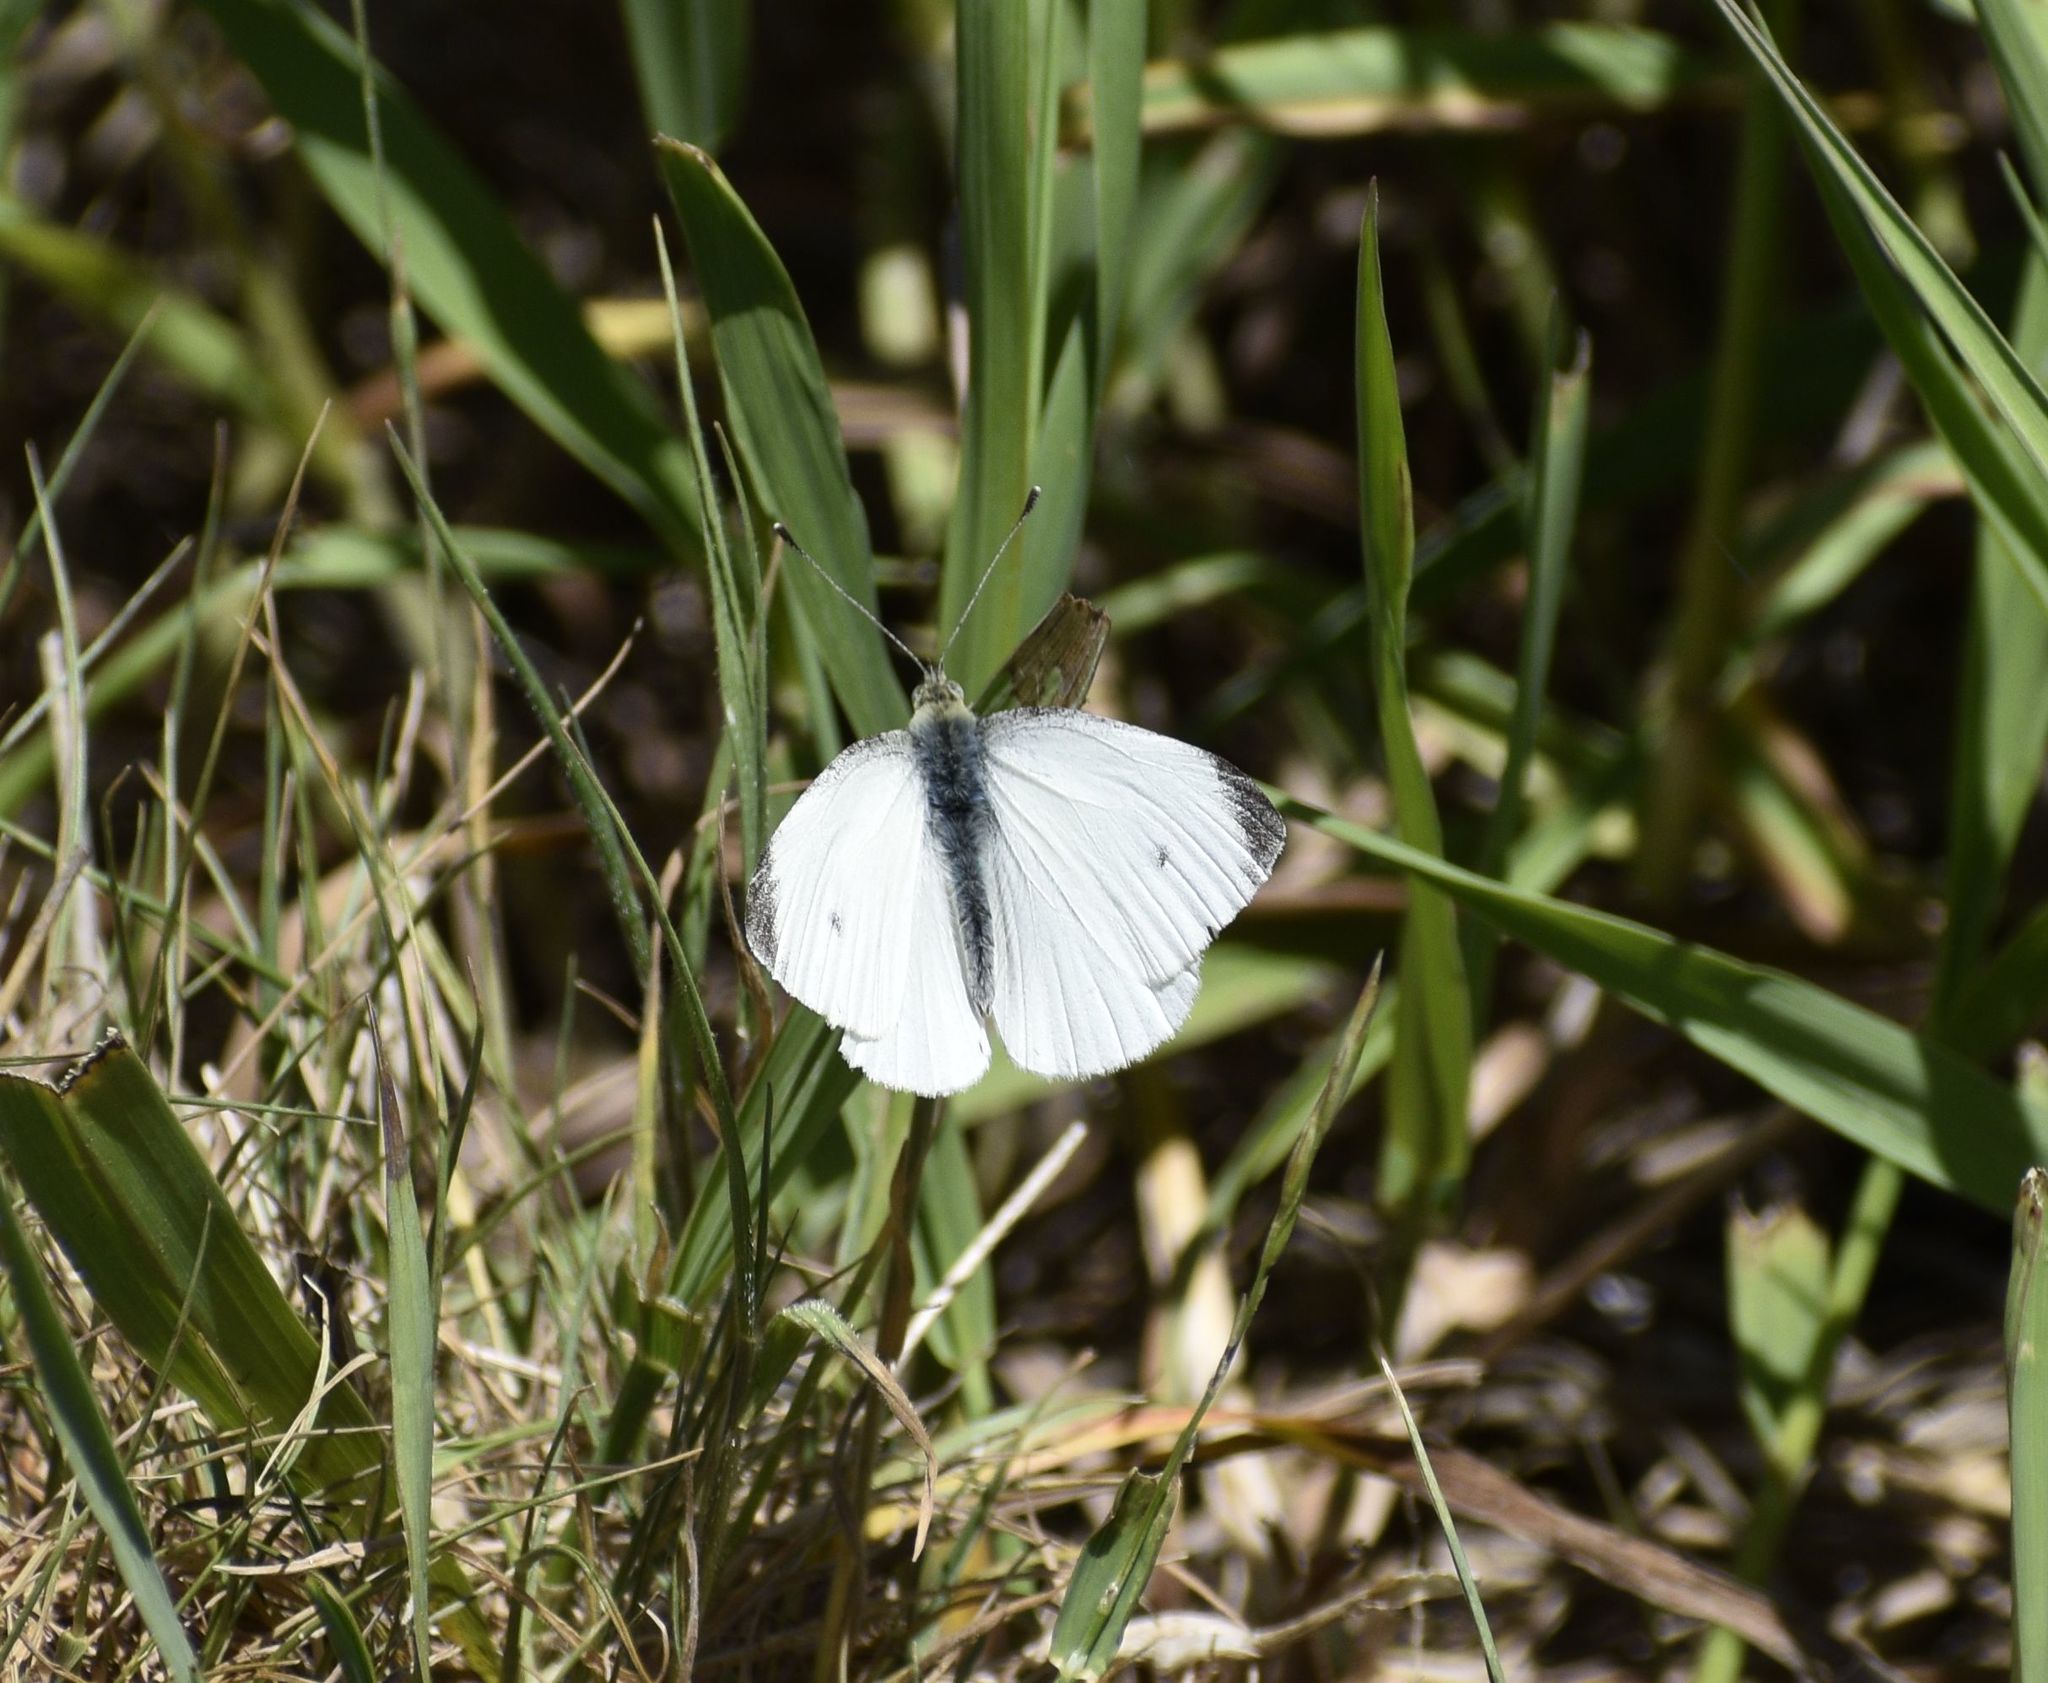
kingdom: Animalia
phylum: Arthropoda
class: Insecta
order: Lepidoptera
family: Pieridae
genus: Pieris
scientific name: Pieris rapae
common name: Small white
